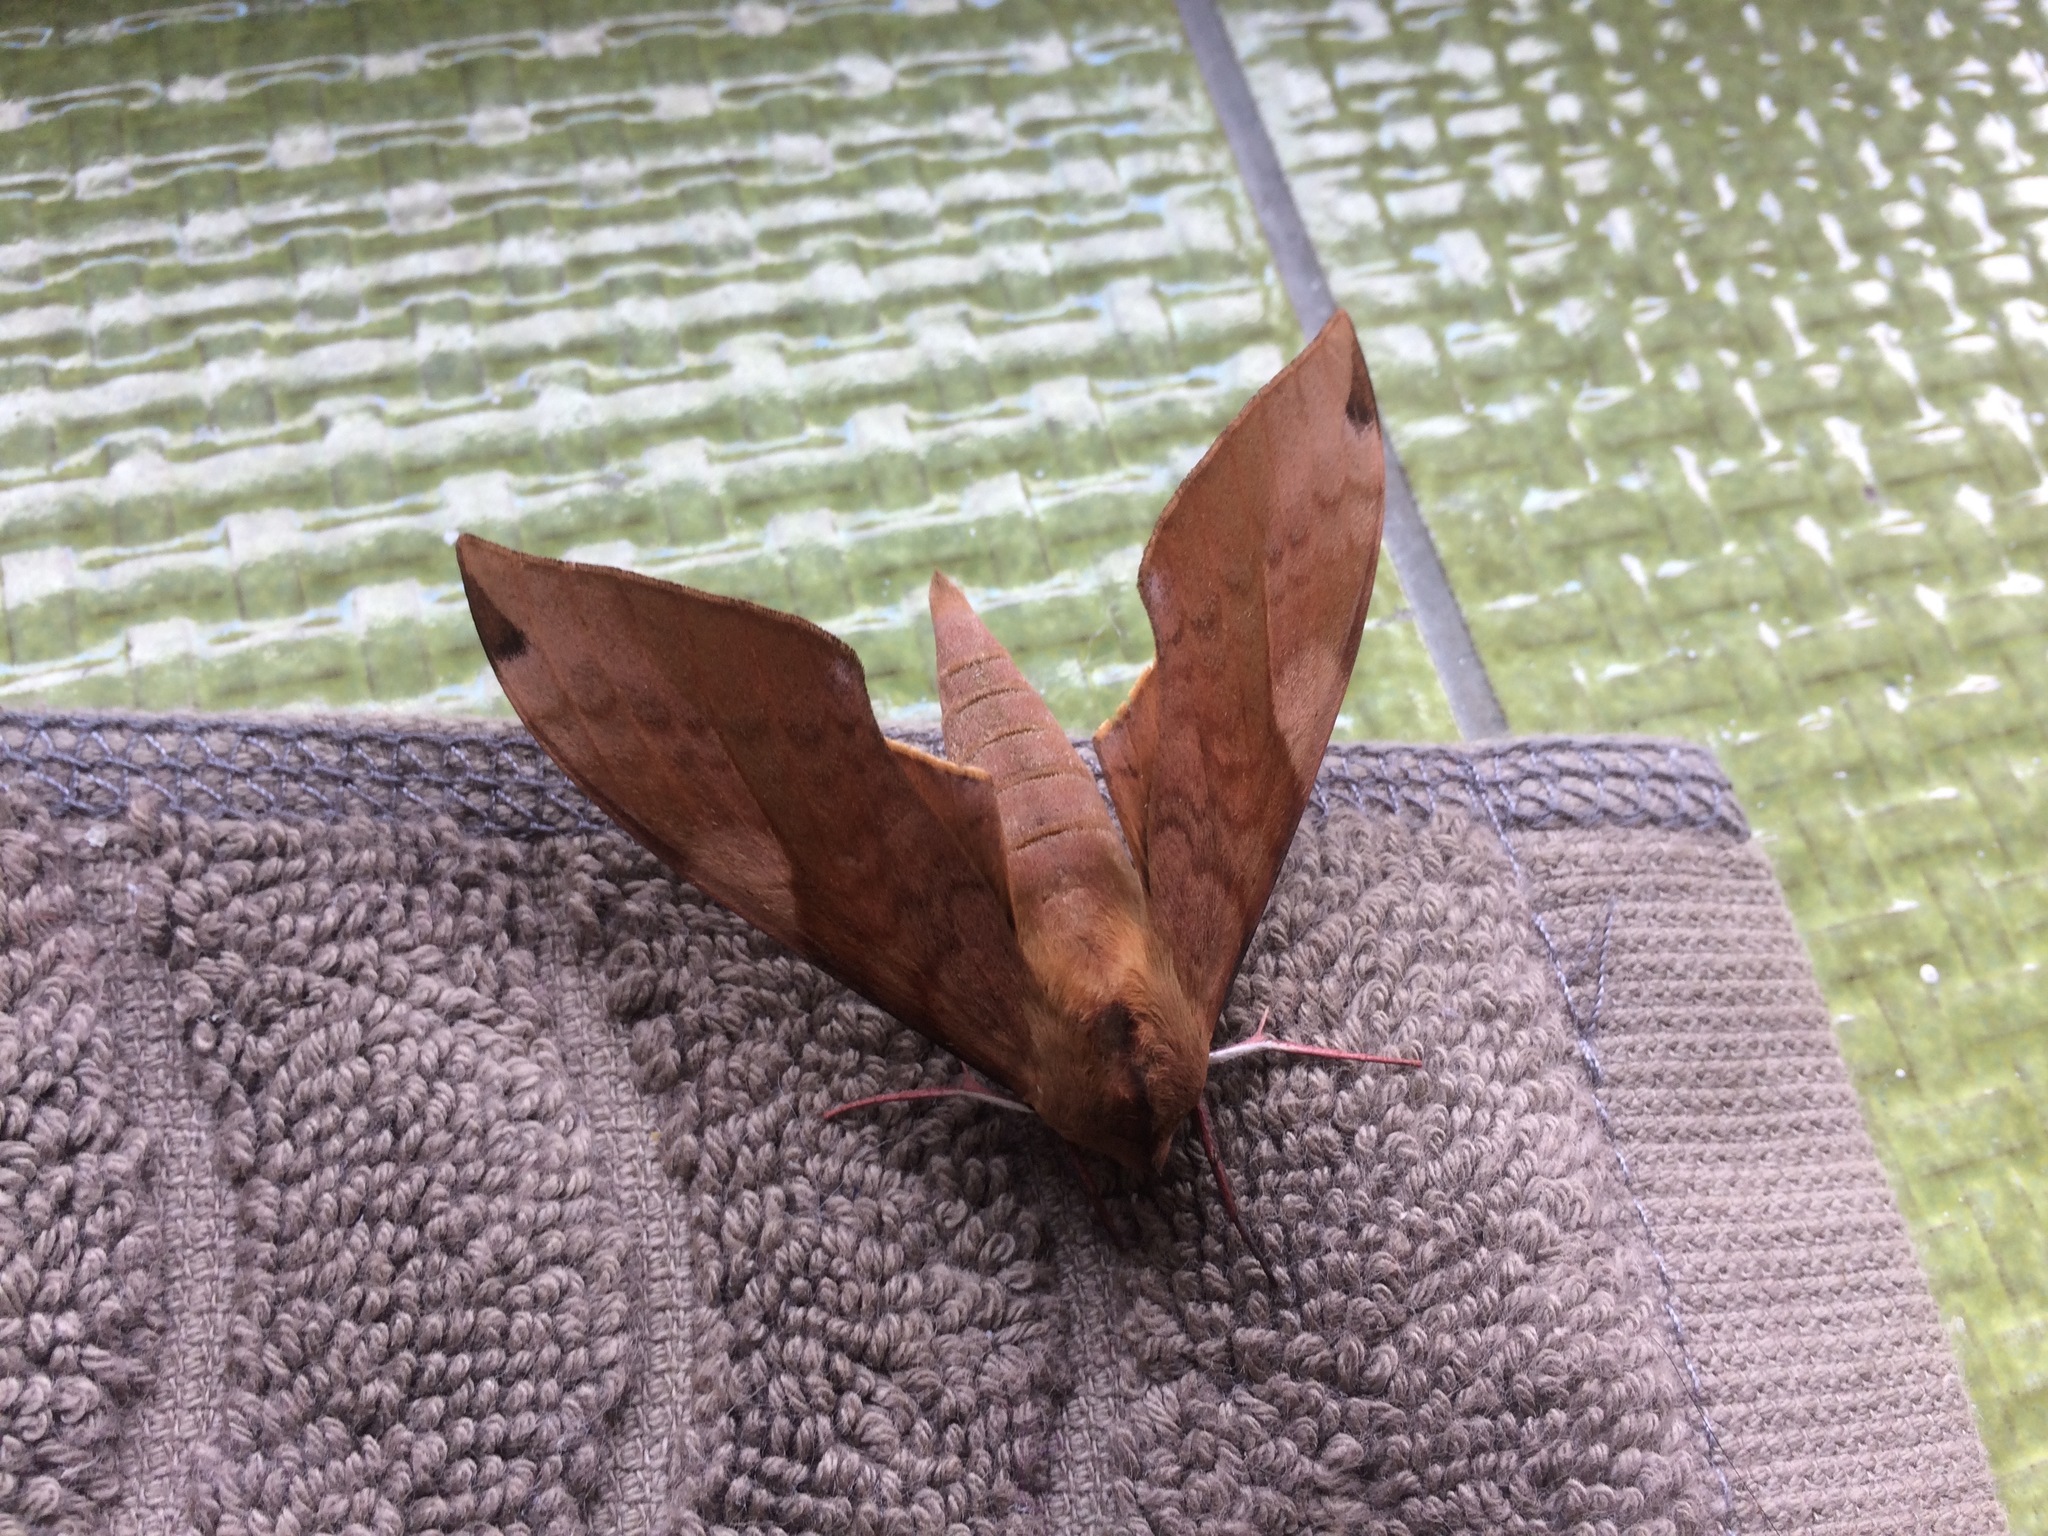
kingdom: Animalia
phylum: Arthropoda
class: Insecta
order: Lepidoptera
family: Sphingidae
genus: Clanis
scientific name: Clanis bilineata
